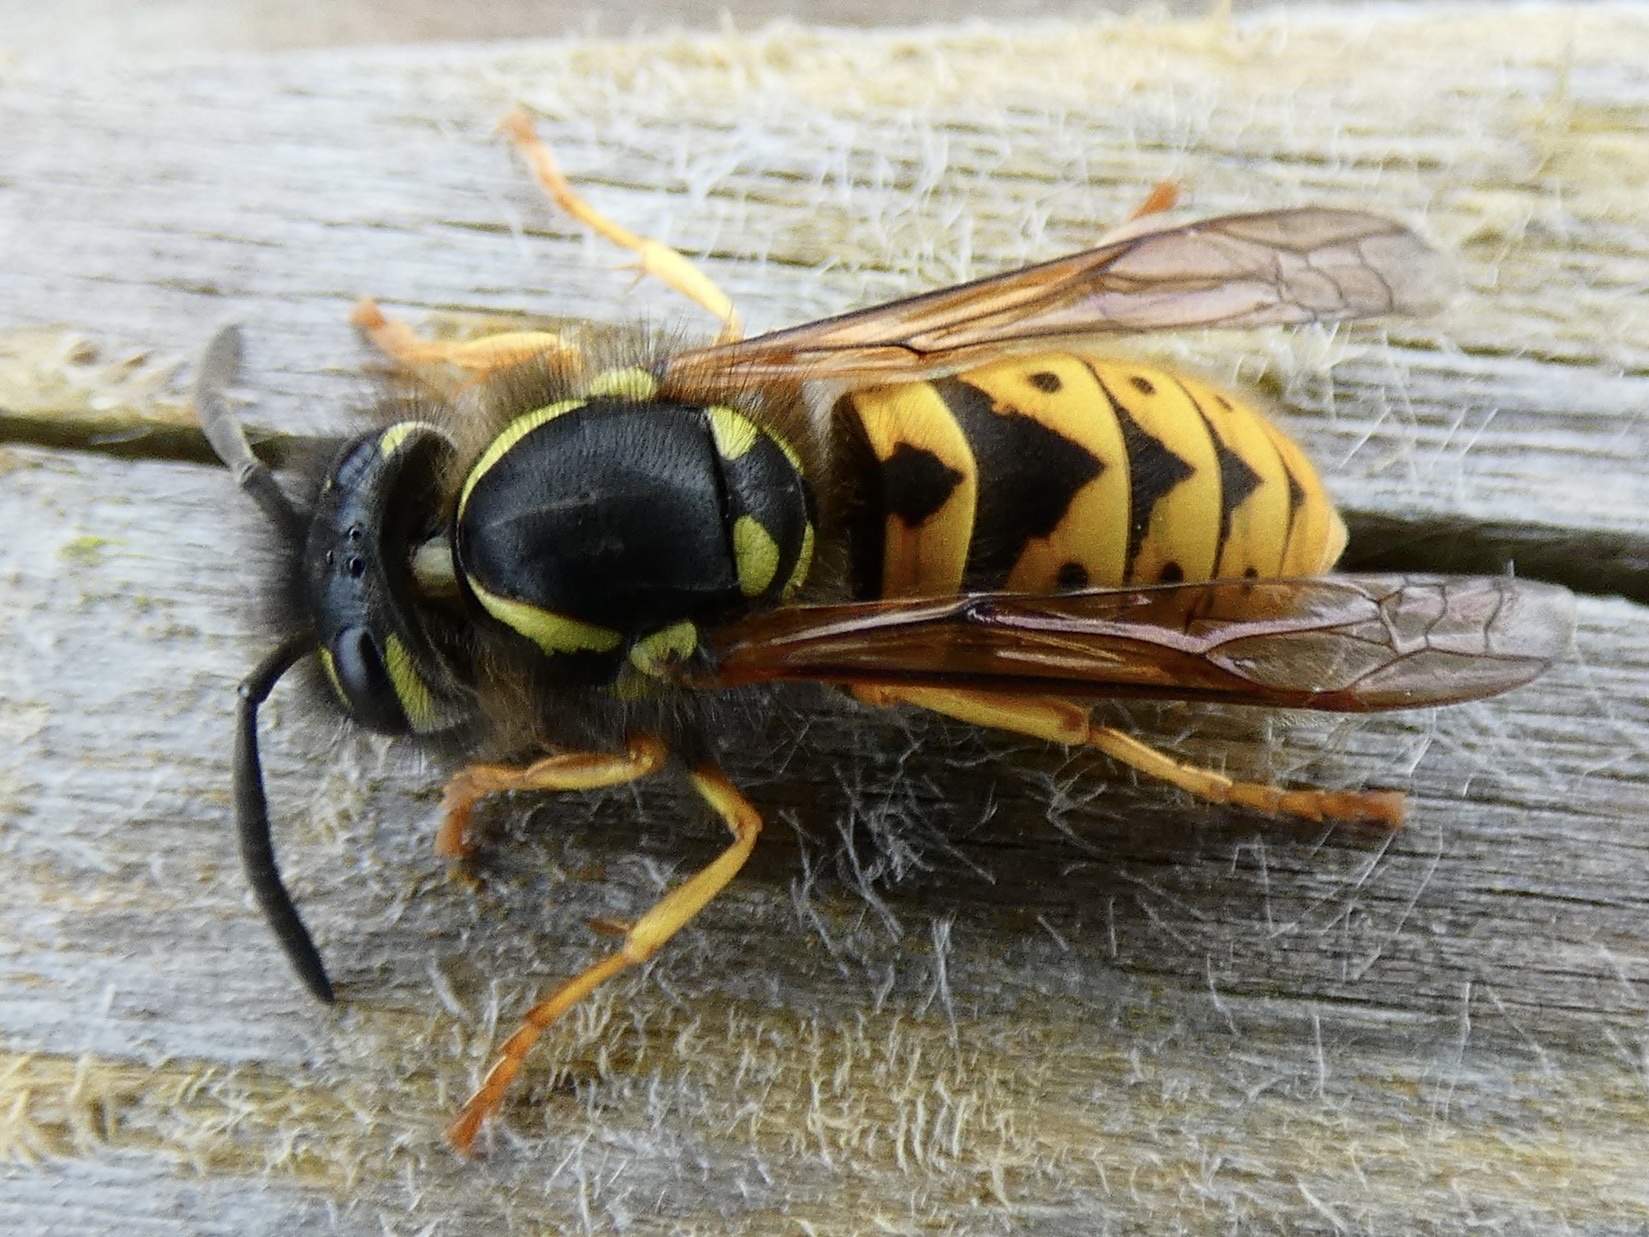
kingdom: Animalia
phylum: Arthropoda
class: Insecta
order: Hymenoptera
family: Vespidae
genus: Vespula
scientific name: Vespula germanica
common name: German wasp
